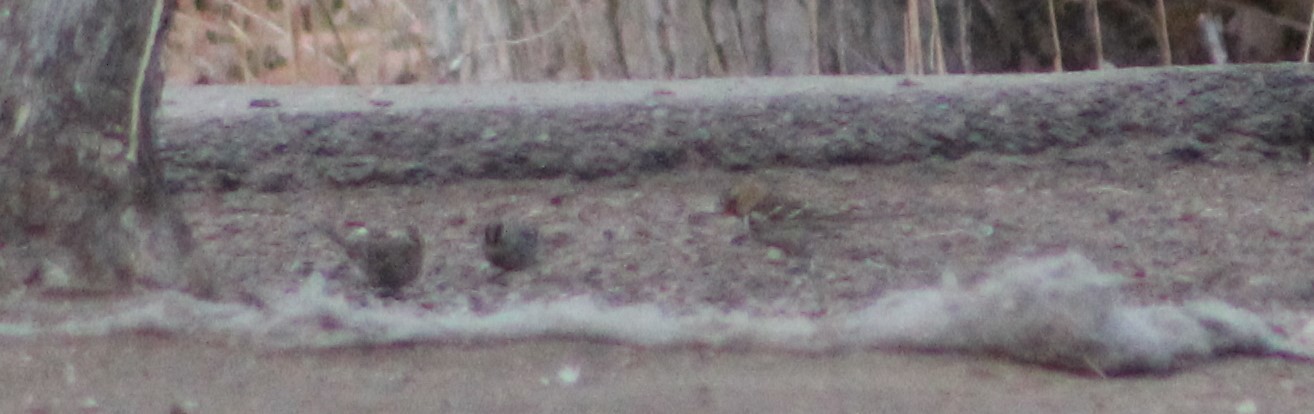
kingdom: Animalia
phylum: Chordata
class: Aves
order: Passeriformes
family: Passerellidae
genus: Zonotrichia
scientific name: Zonotrichia querula
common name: Harris's sparrow
